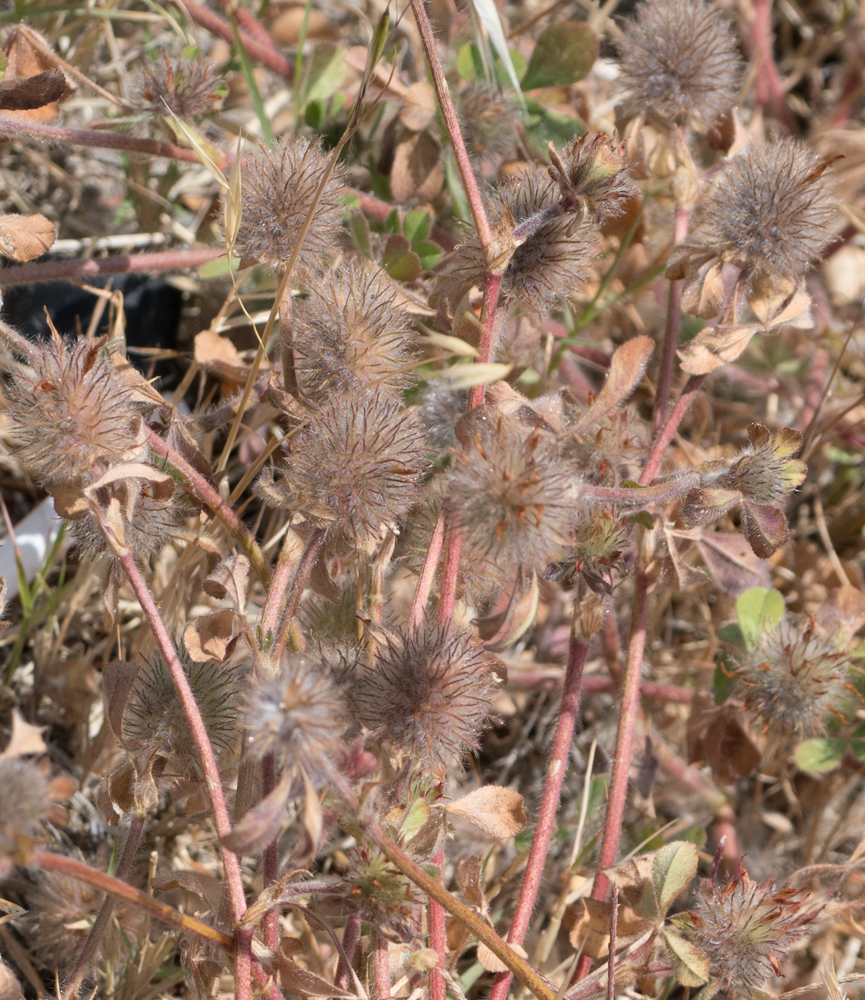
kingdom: Plantae
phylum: Tracheophyta
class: Magnoliopsida
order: Fabales
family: Fabaceae
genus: Trifolium
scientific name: Trifolium hirtum
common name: Rose clover
